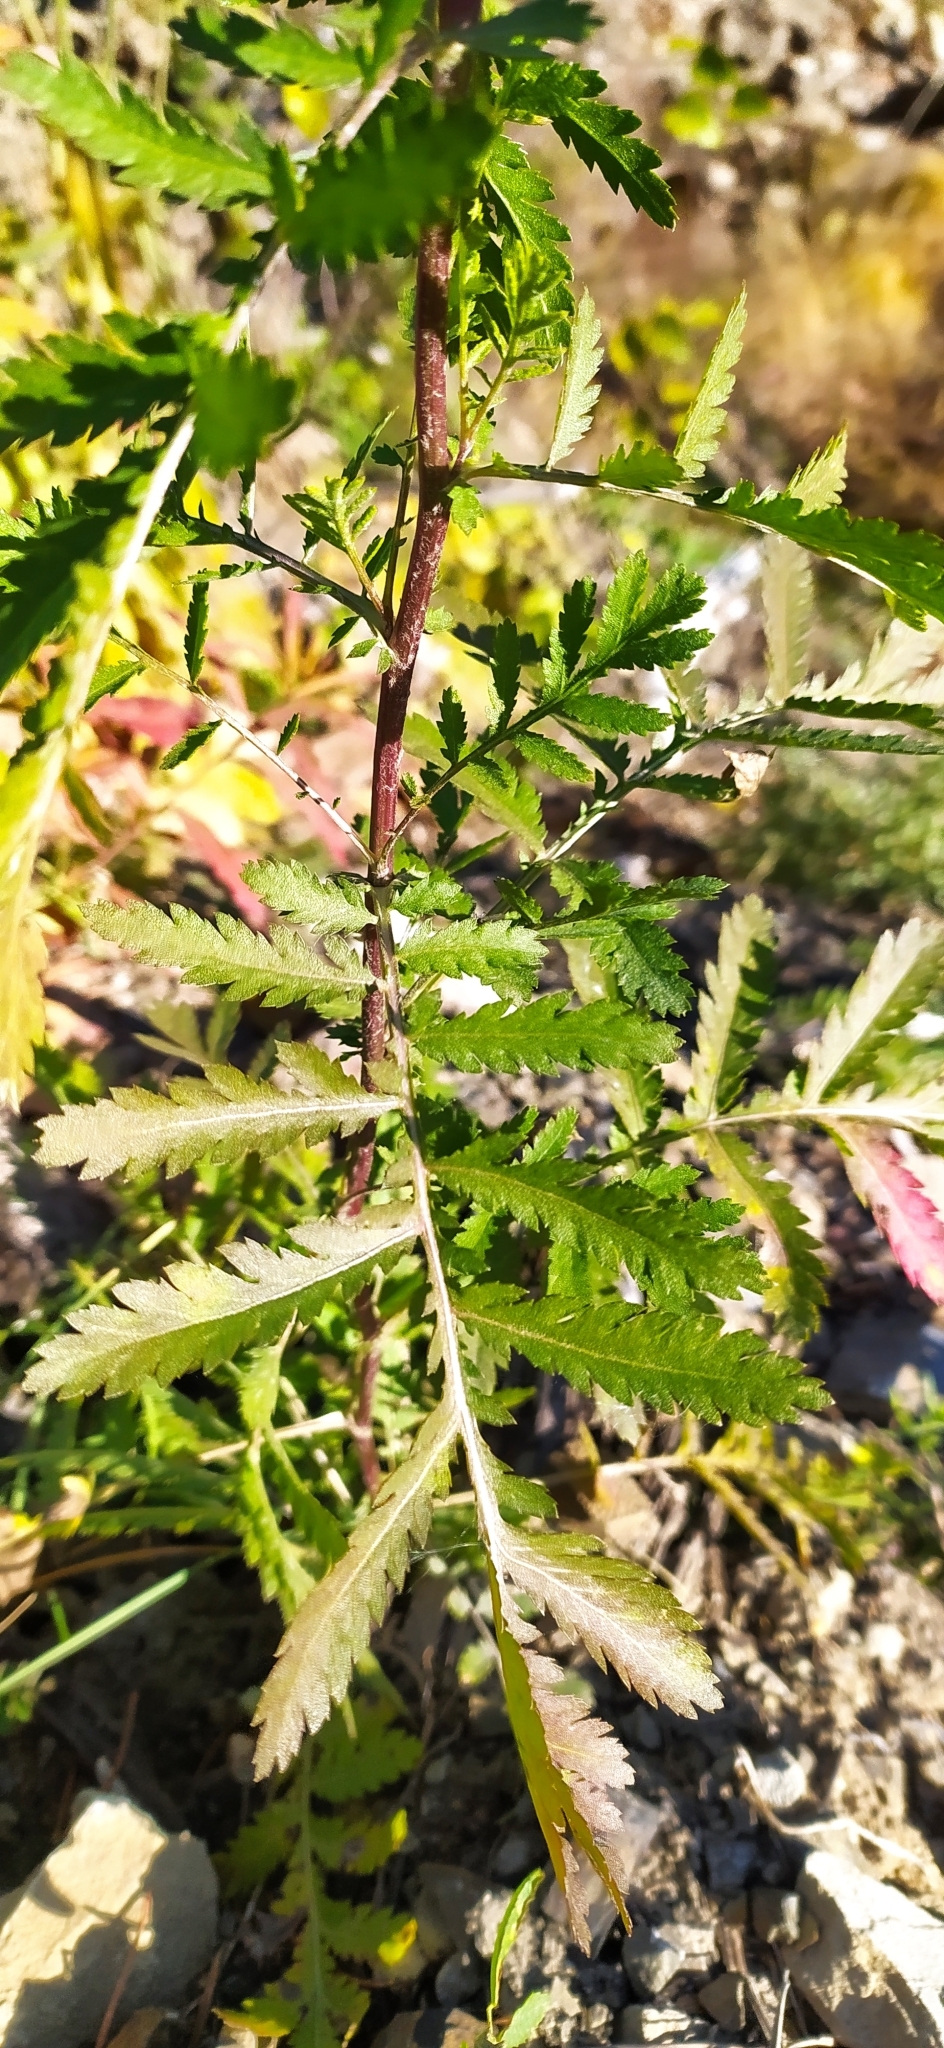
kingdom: Plantae
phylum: Tracheophyta
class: Magnoliopsida
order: Asterales
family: Asteraceae
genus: Tanacetum
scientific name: Tanacetum vulgare
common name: Common tansy
